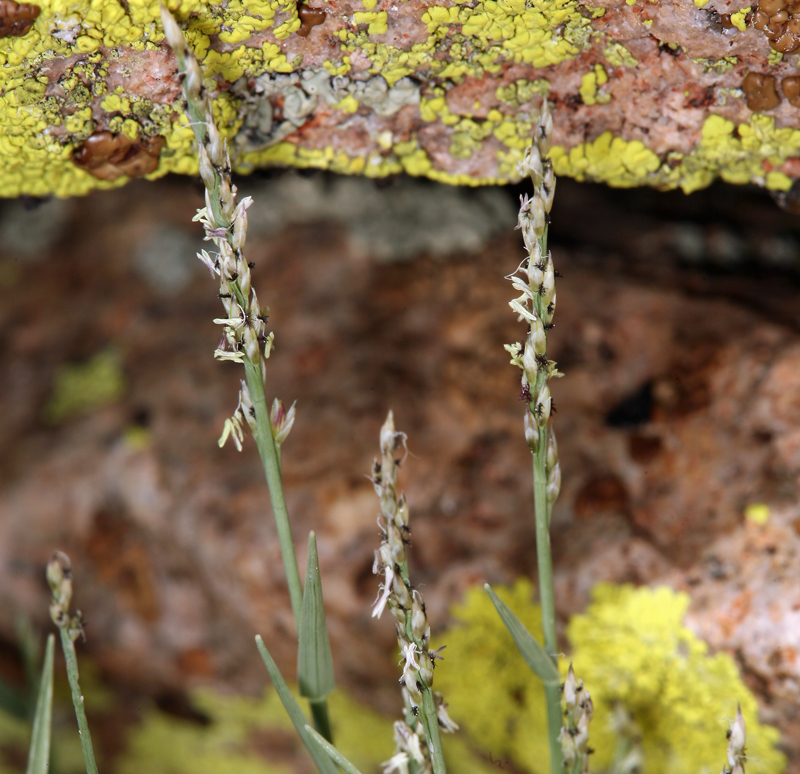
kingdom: Plantae
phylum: Tracheophyta
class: Liliopsida
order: Poales
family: Poaceae
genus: Muhlenbergia
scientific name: Muhlenbergia richardsonis
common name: Mat muhly
